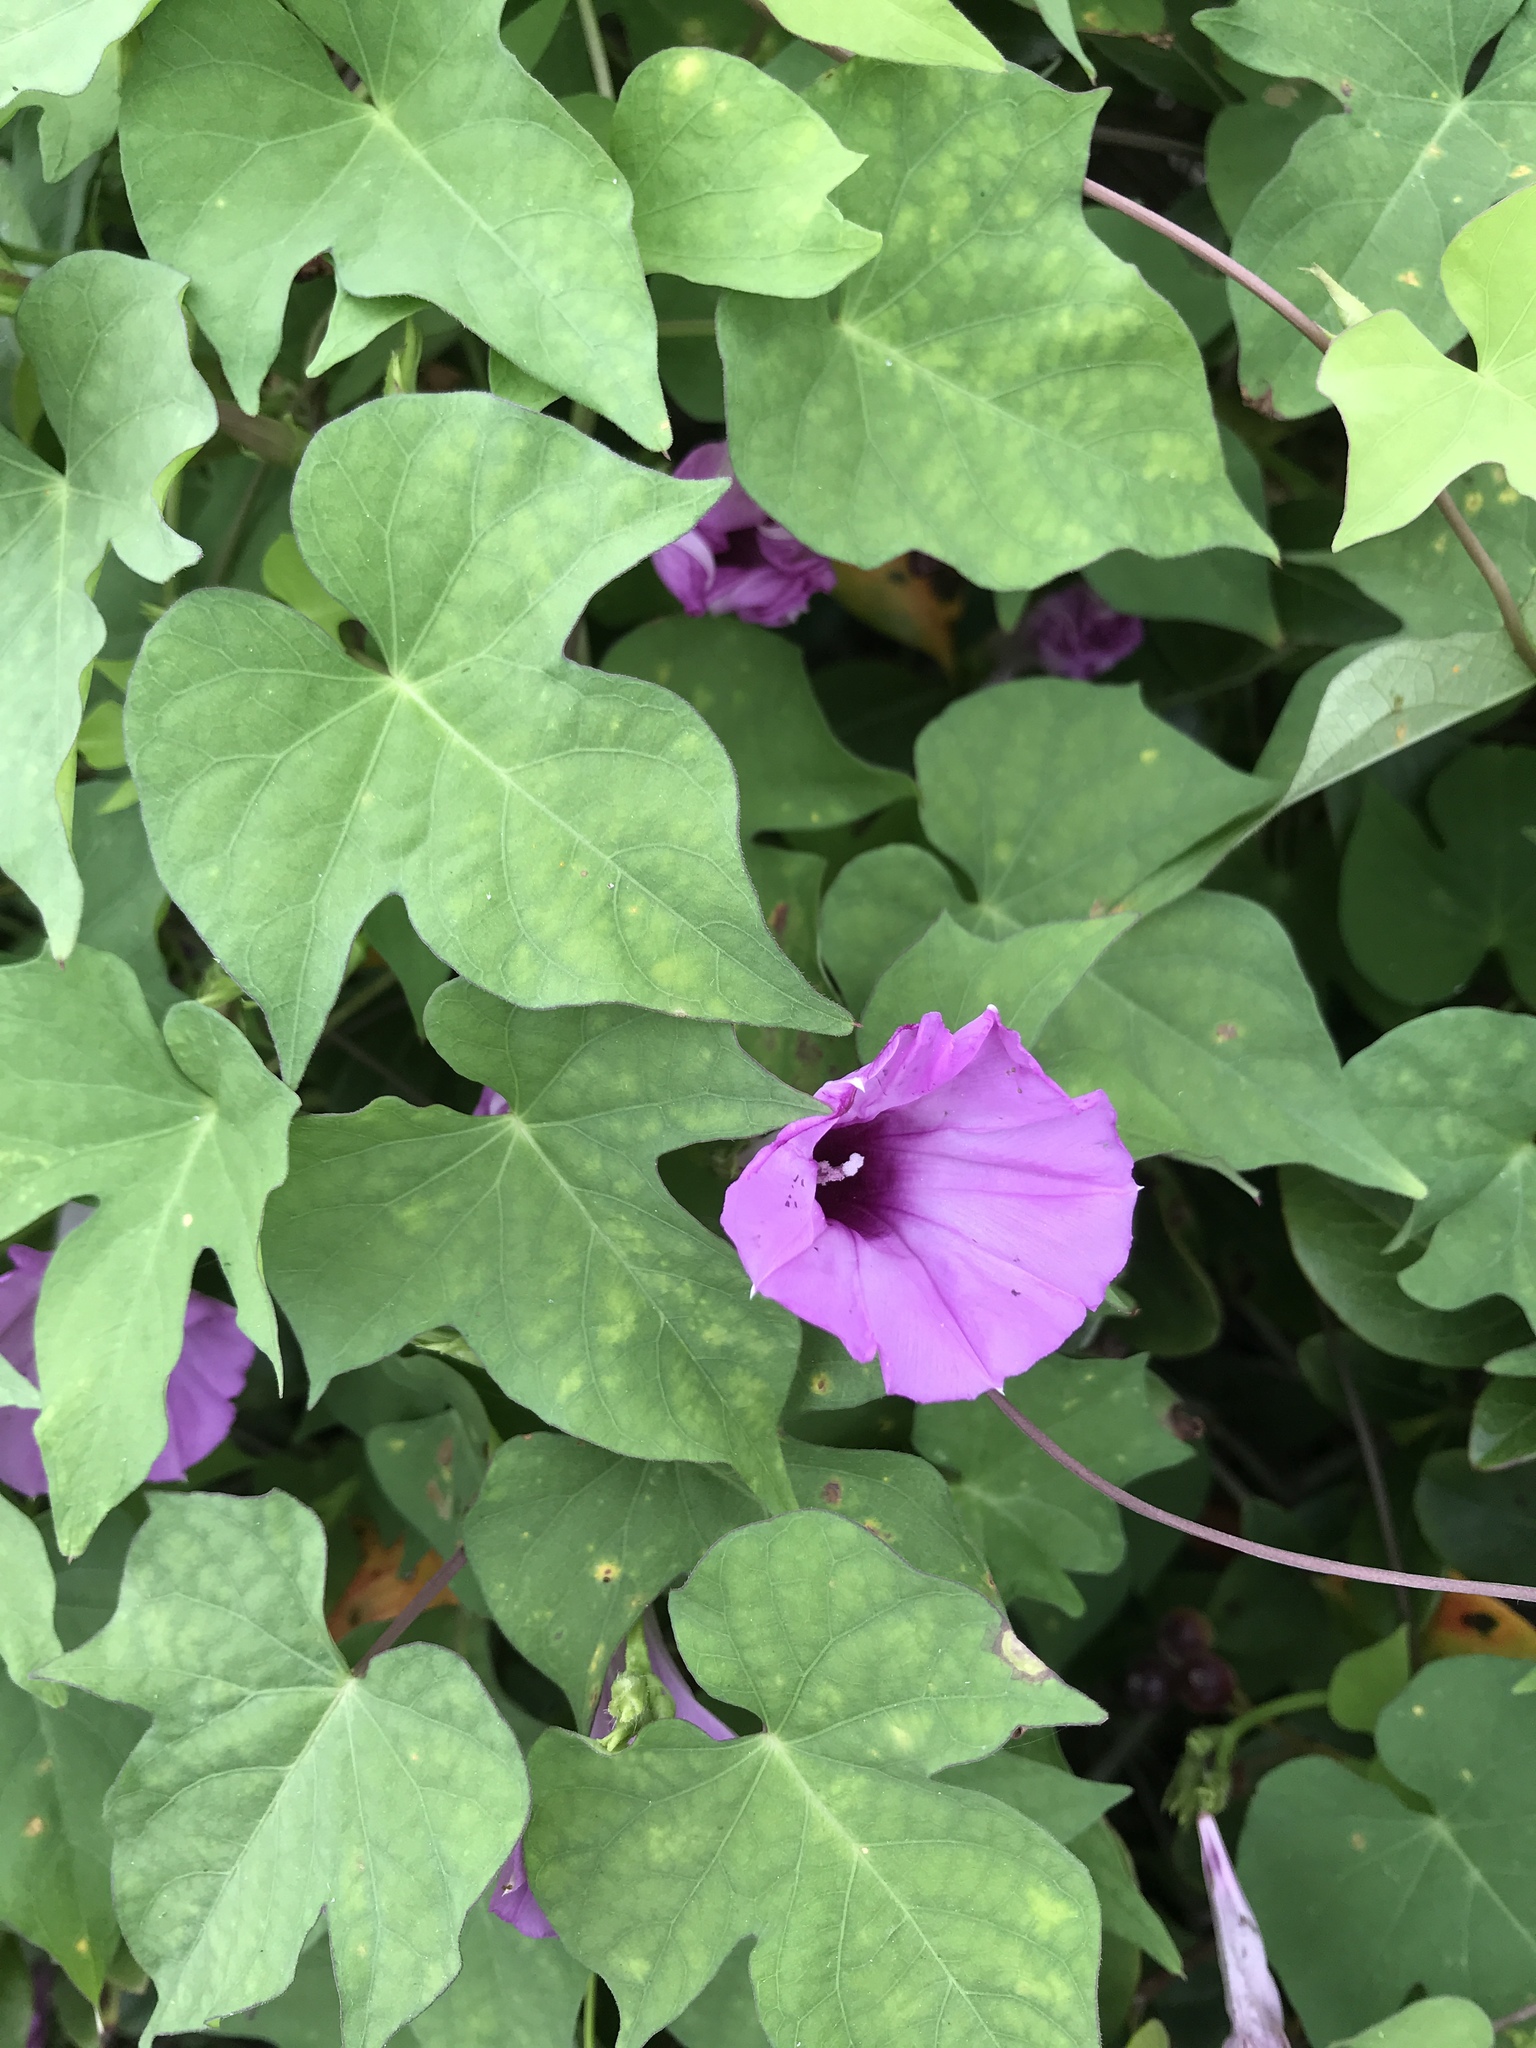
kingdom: Plantae
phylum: Tracheophyta
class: Magnoliopsida
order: Solanales
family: Convolvulaceae
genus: Ipomoea
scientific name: Ipomoea cordatotriloba
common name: Cotton morning glory
